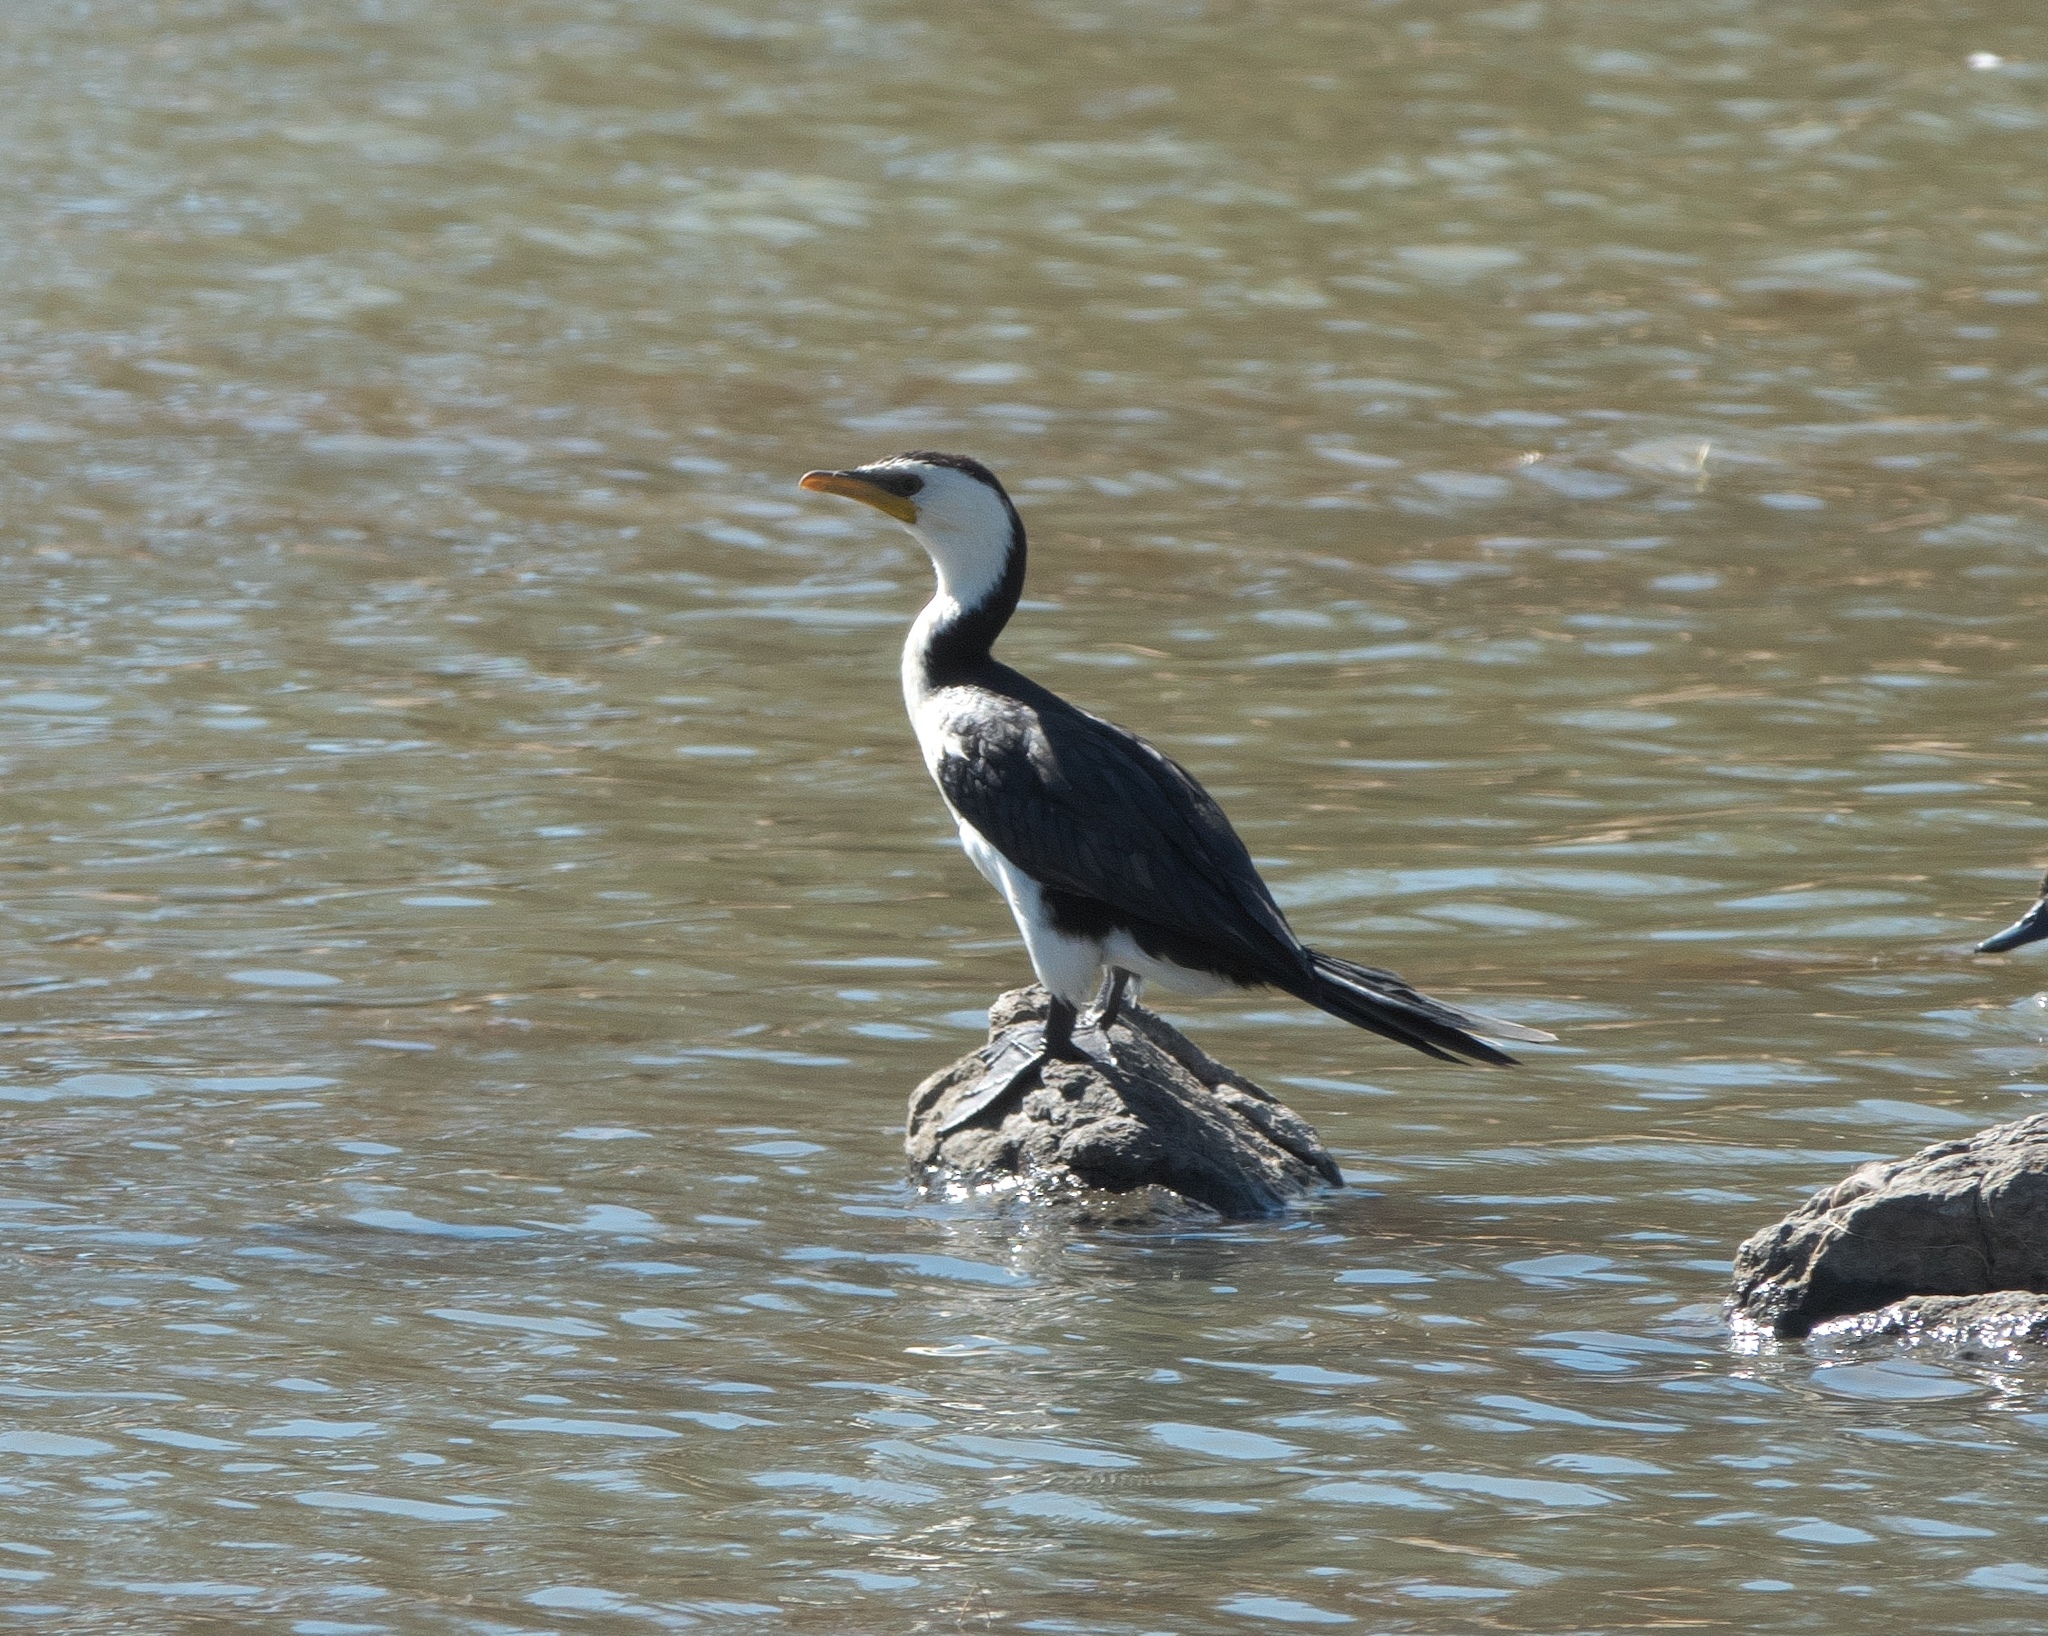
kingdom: Animalia
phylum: Chordata
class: Aves
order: Suliformes
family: Phalacrocoracidae
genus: Microcarbo
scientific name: Microcarbo melanoleucos
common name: Little pied cormorant
